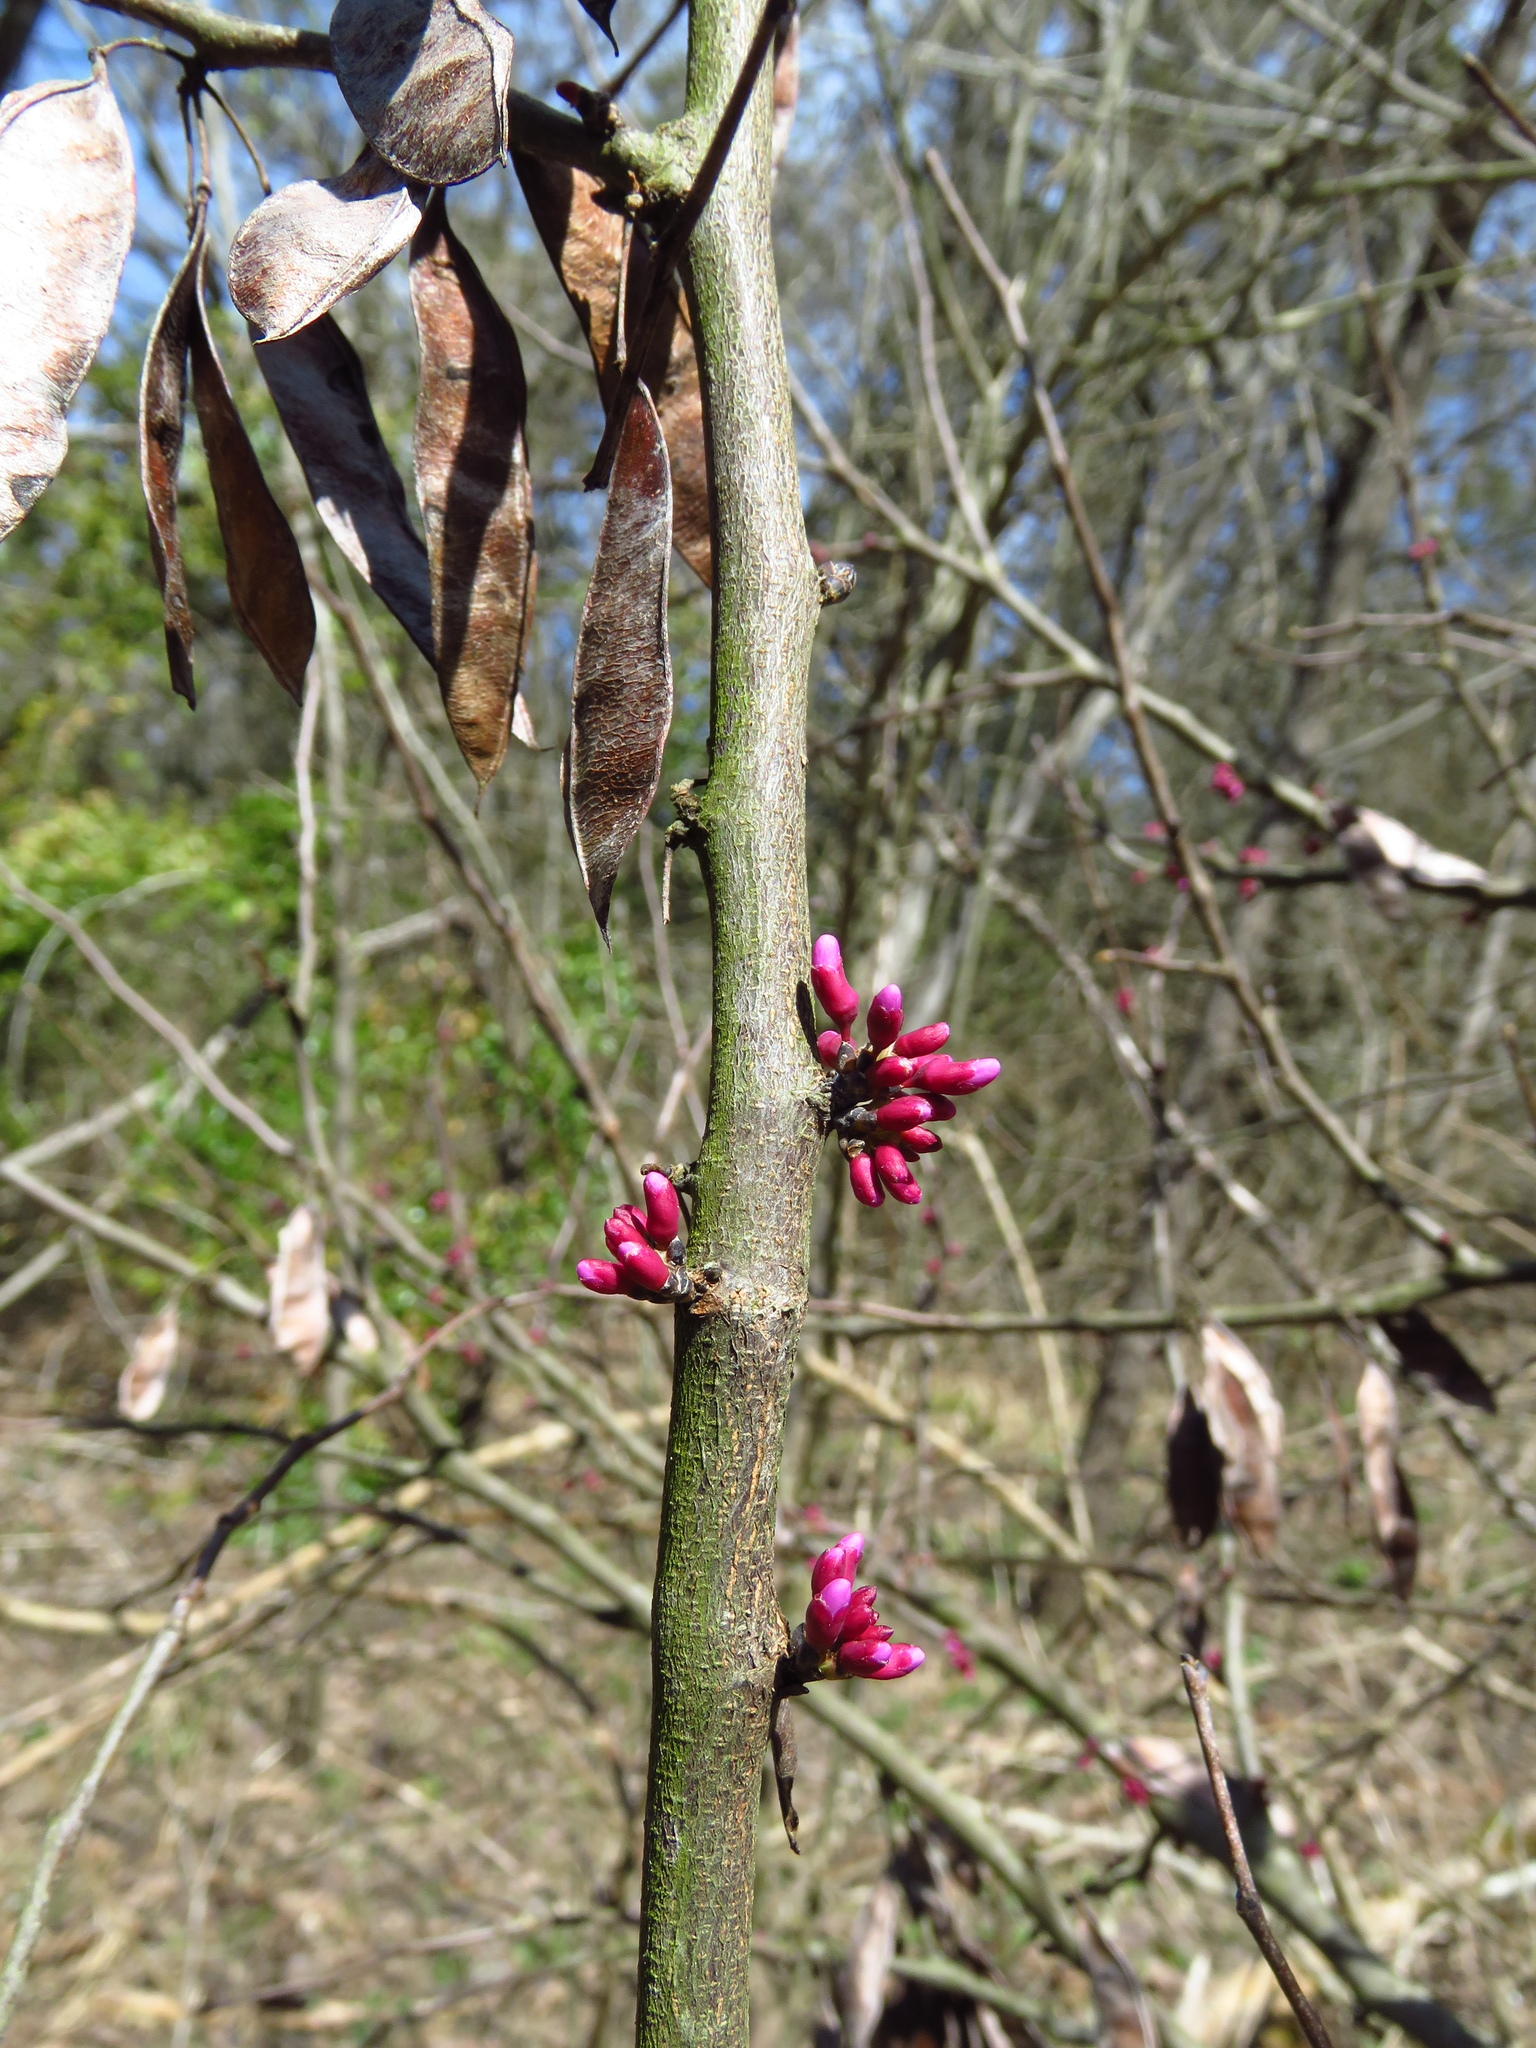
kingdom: Plantae
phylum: Tracheophyta
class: Magnoliopsida
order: Fabales
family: Fabaceae
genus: Cercis
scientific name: Cercis canadensis
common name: Eastern redbud
